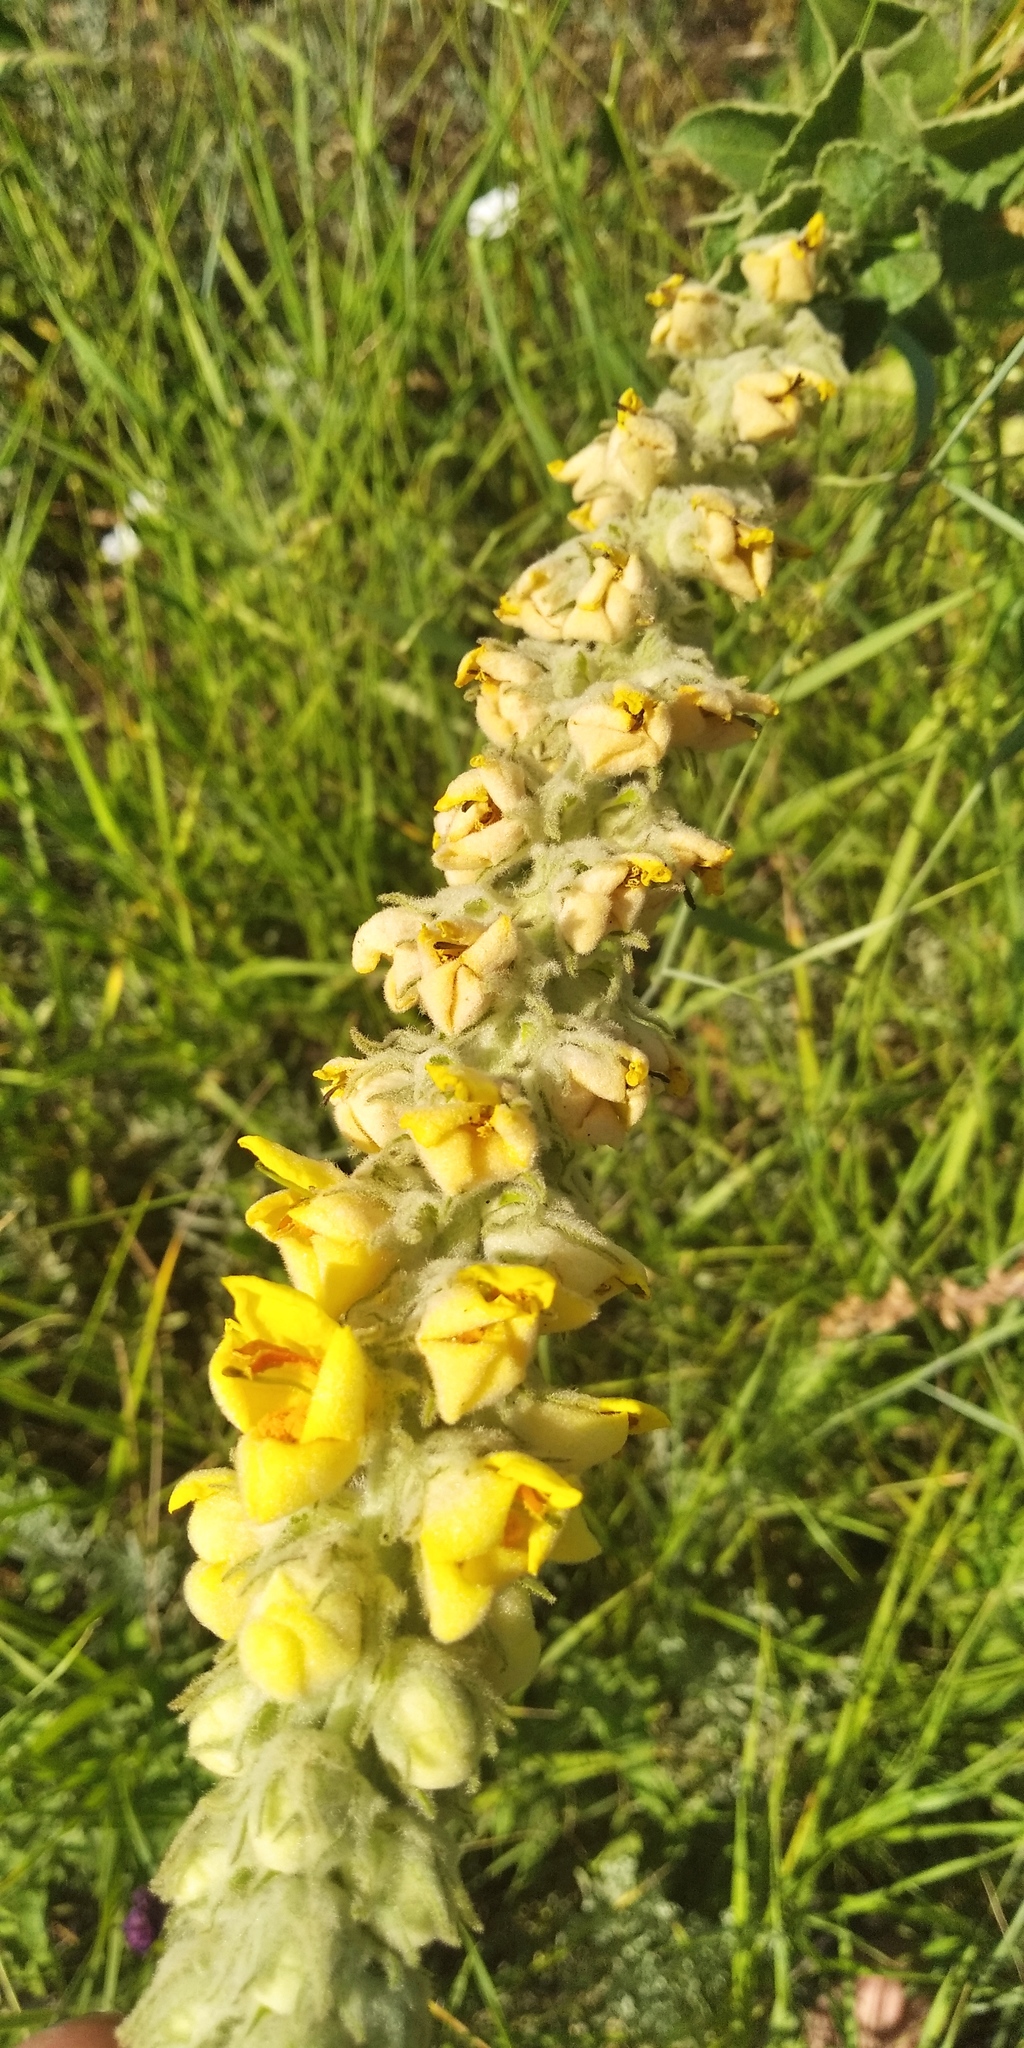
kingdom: Plantae
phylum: Tracheophyta
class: Magnoliopsida
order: Lamiales
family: Scrophulariaceae
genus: Verbascum
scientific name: Verbascum ovalifolium
